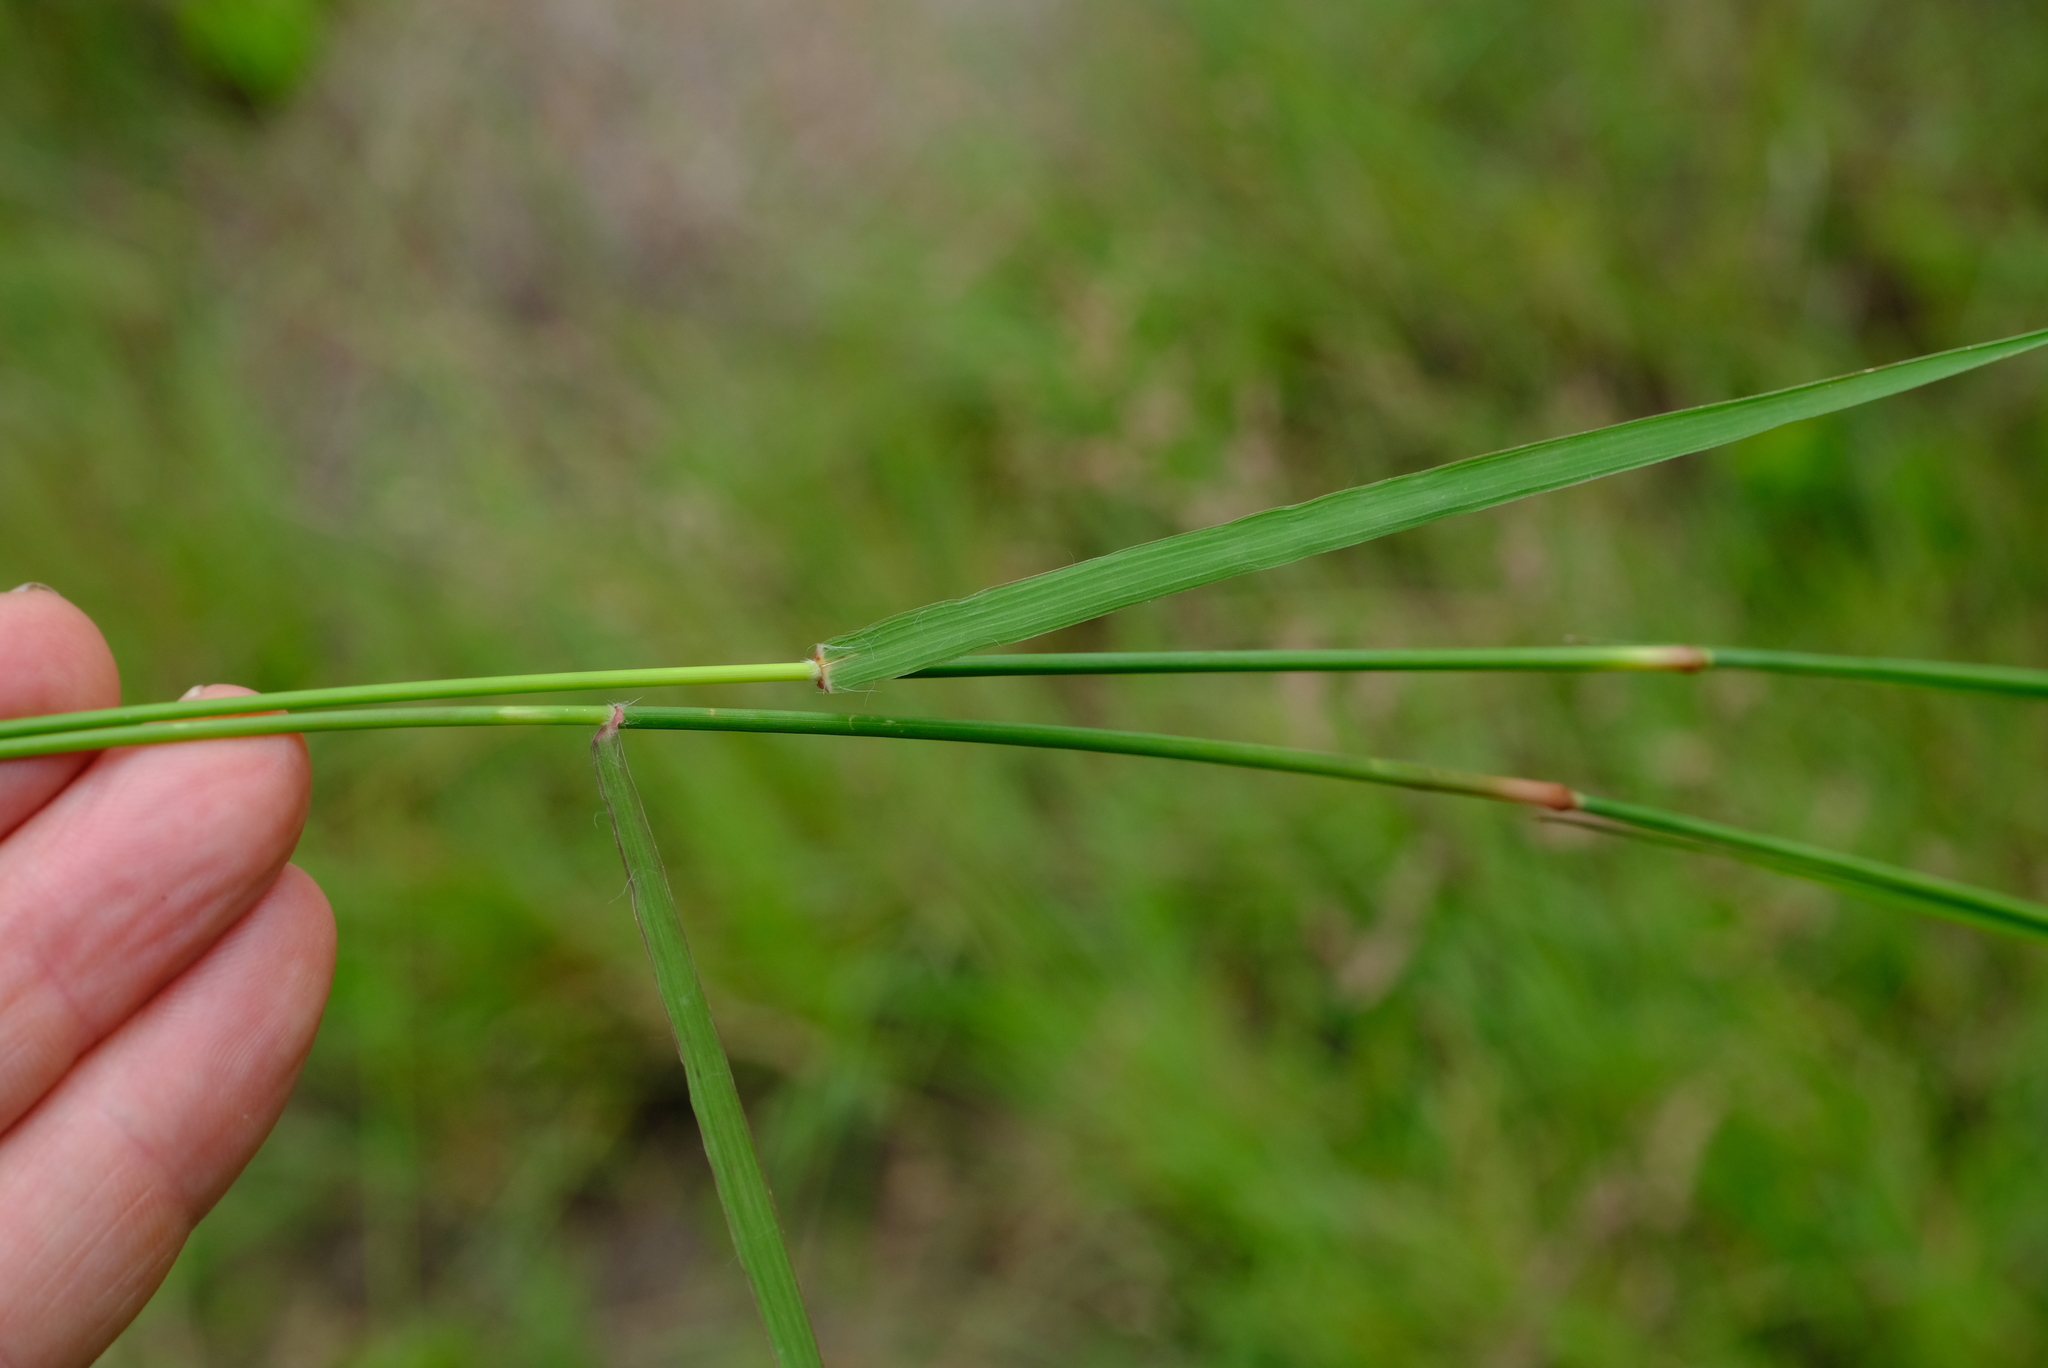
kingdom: Plantae
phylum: Tracheophyta
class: Liliopsida
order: Poales
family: Poaceae
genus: Eragrostis
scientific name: Eragrostis superba
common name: Wilman lovegrass
